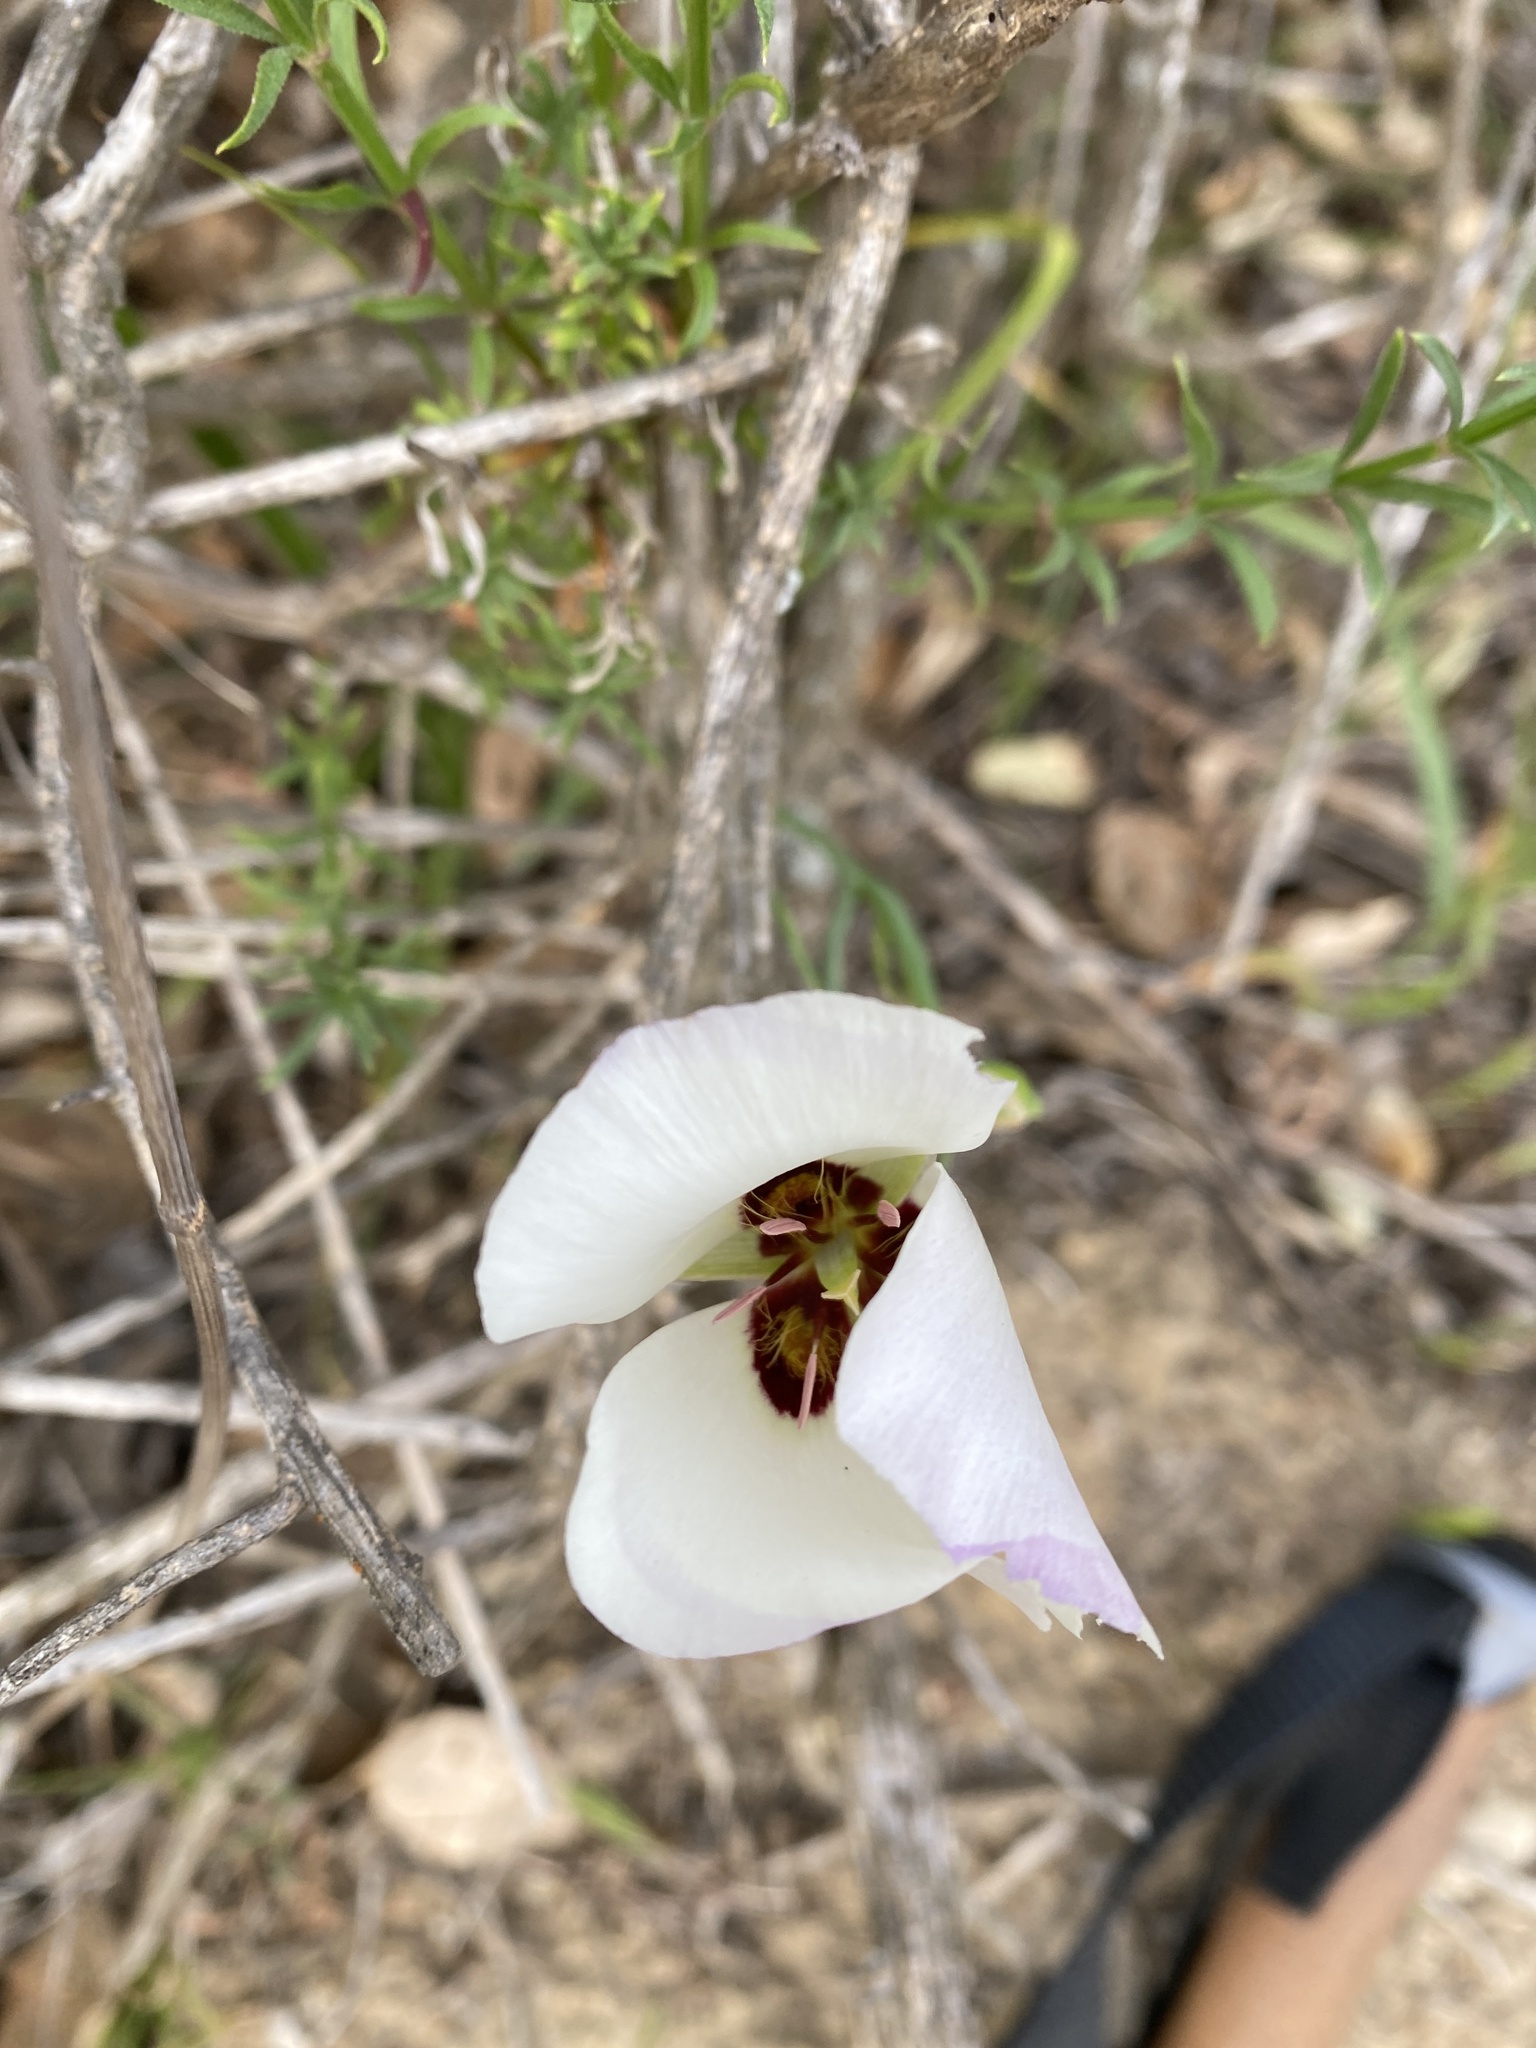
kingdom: Plantae
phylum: Tracheophyta
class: Liliopsida
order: Liliales
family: Liliaceae
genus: Calochortus
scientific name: Calochortus catalinae
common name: Catalina mariposa-lily
